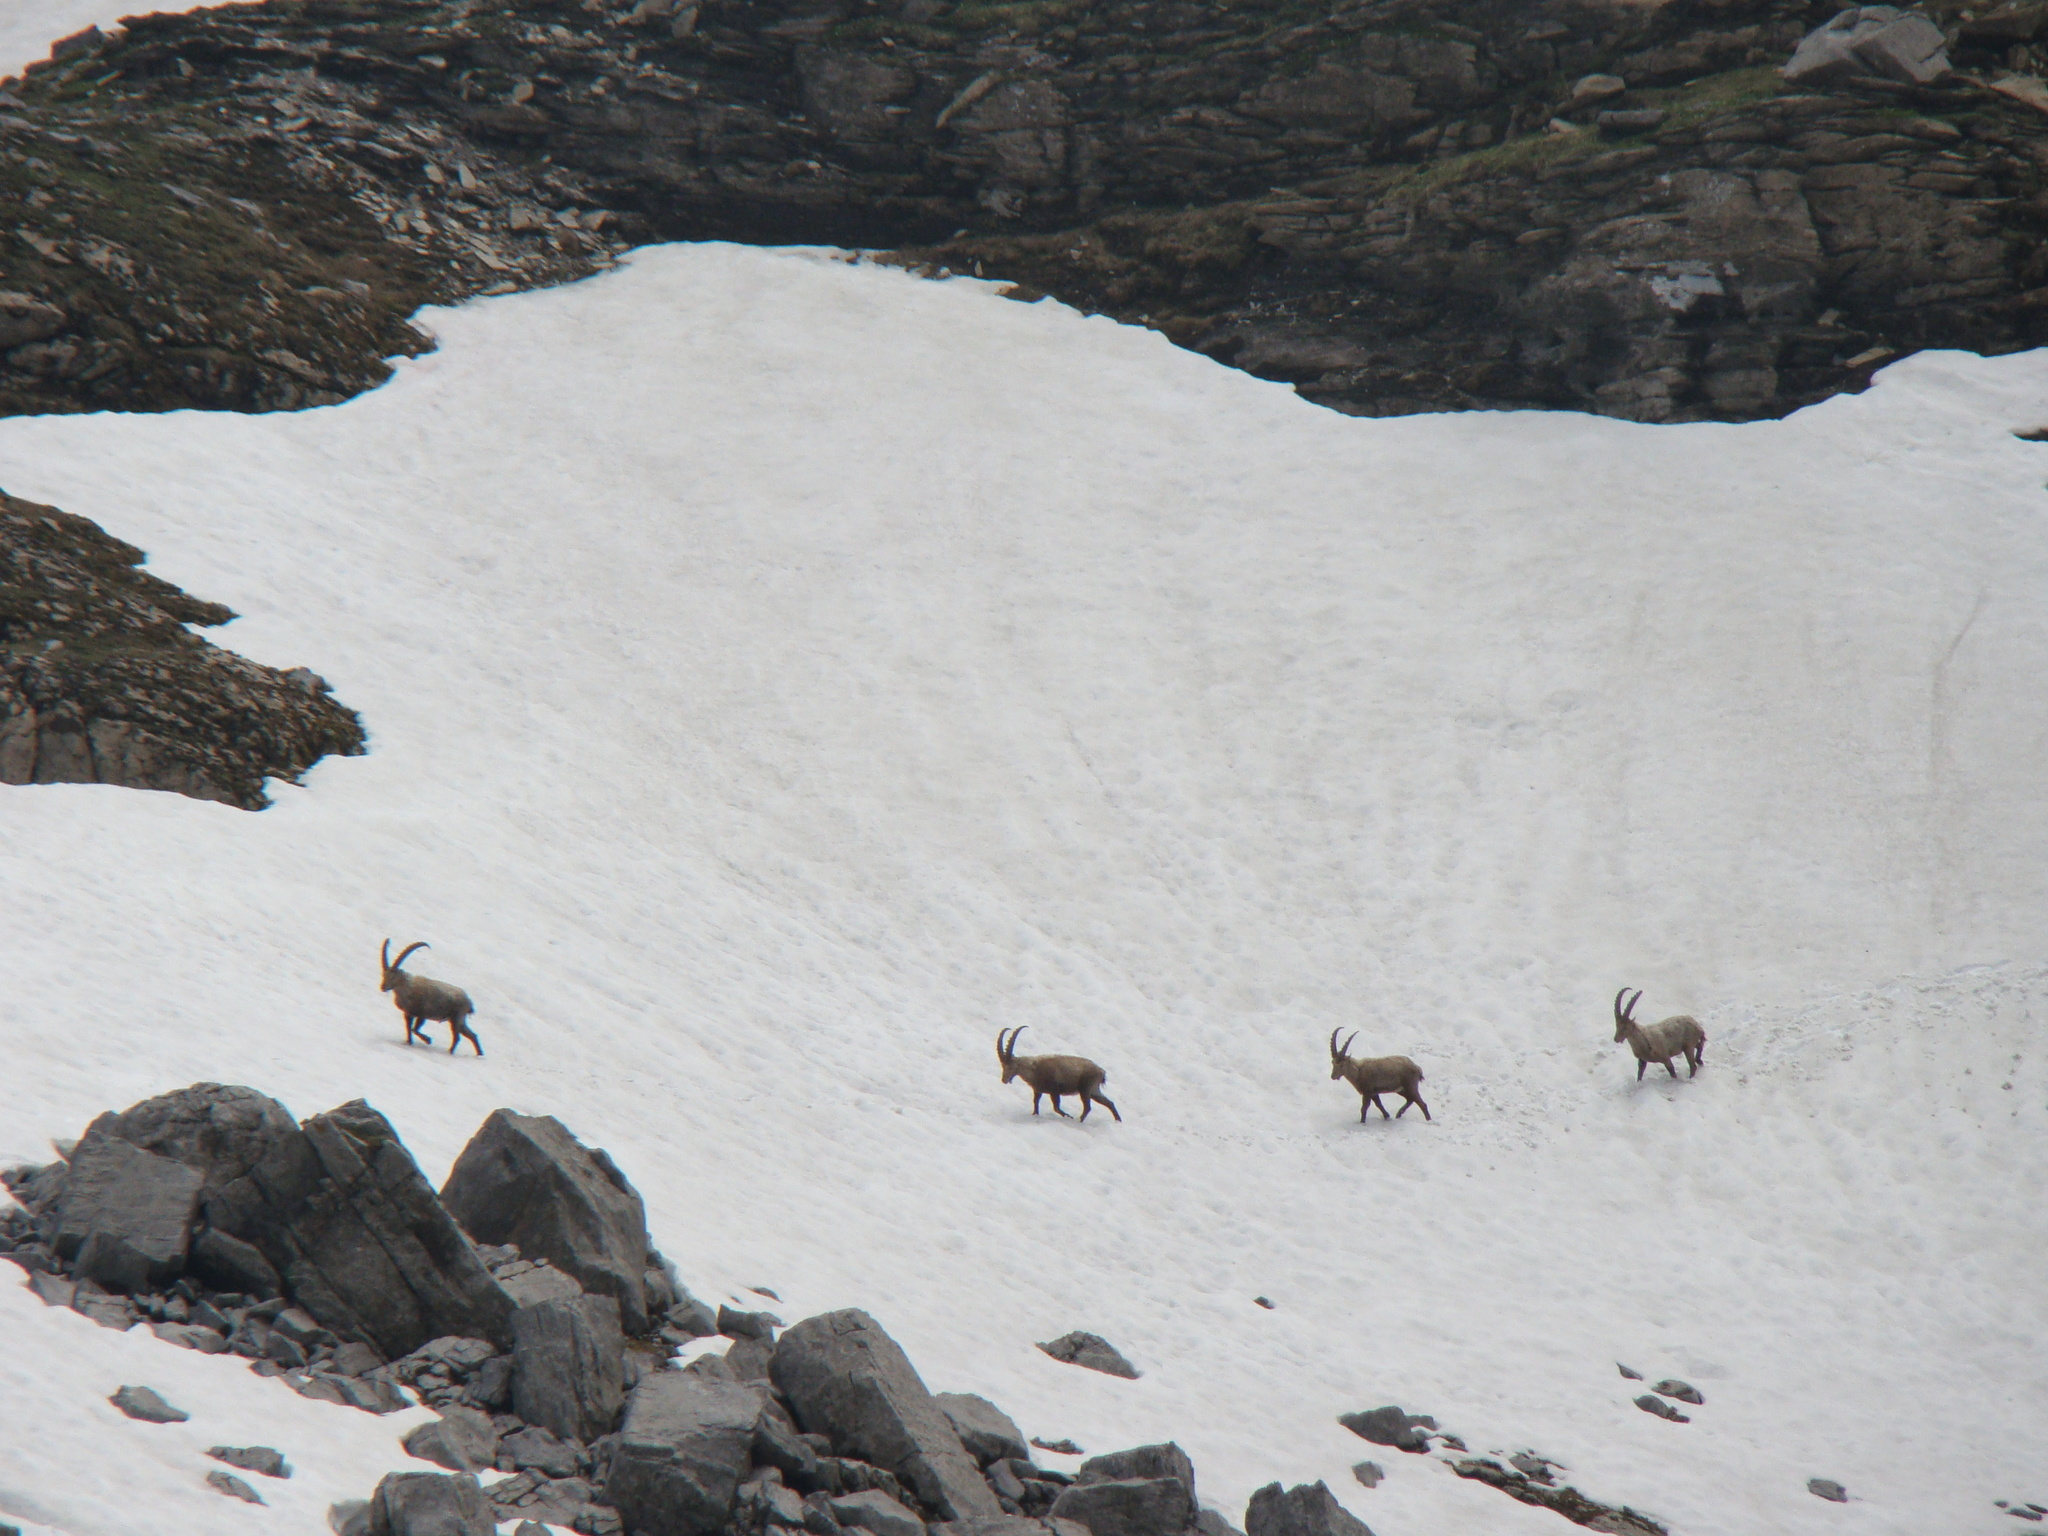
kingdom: Animalia
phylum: Chordata
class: Mammalia
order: Artiodactyla
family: Bovidae
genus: Capra
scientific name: Capra ibex
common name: Alpine ibex
